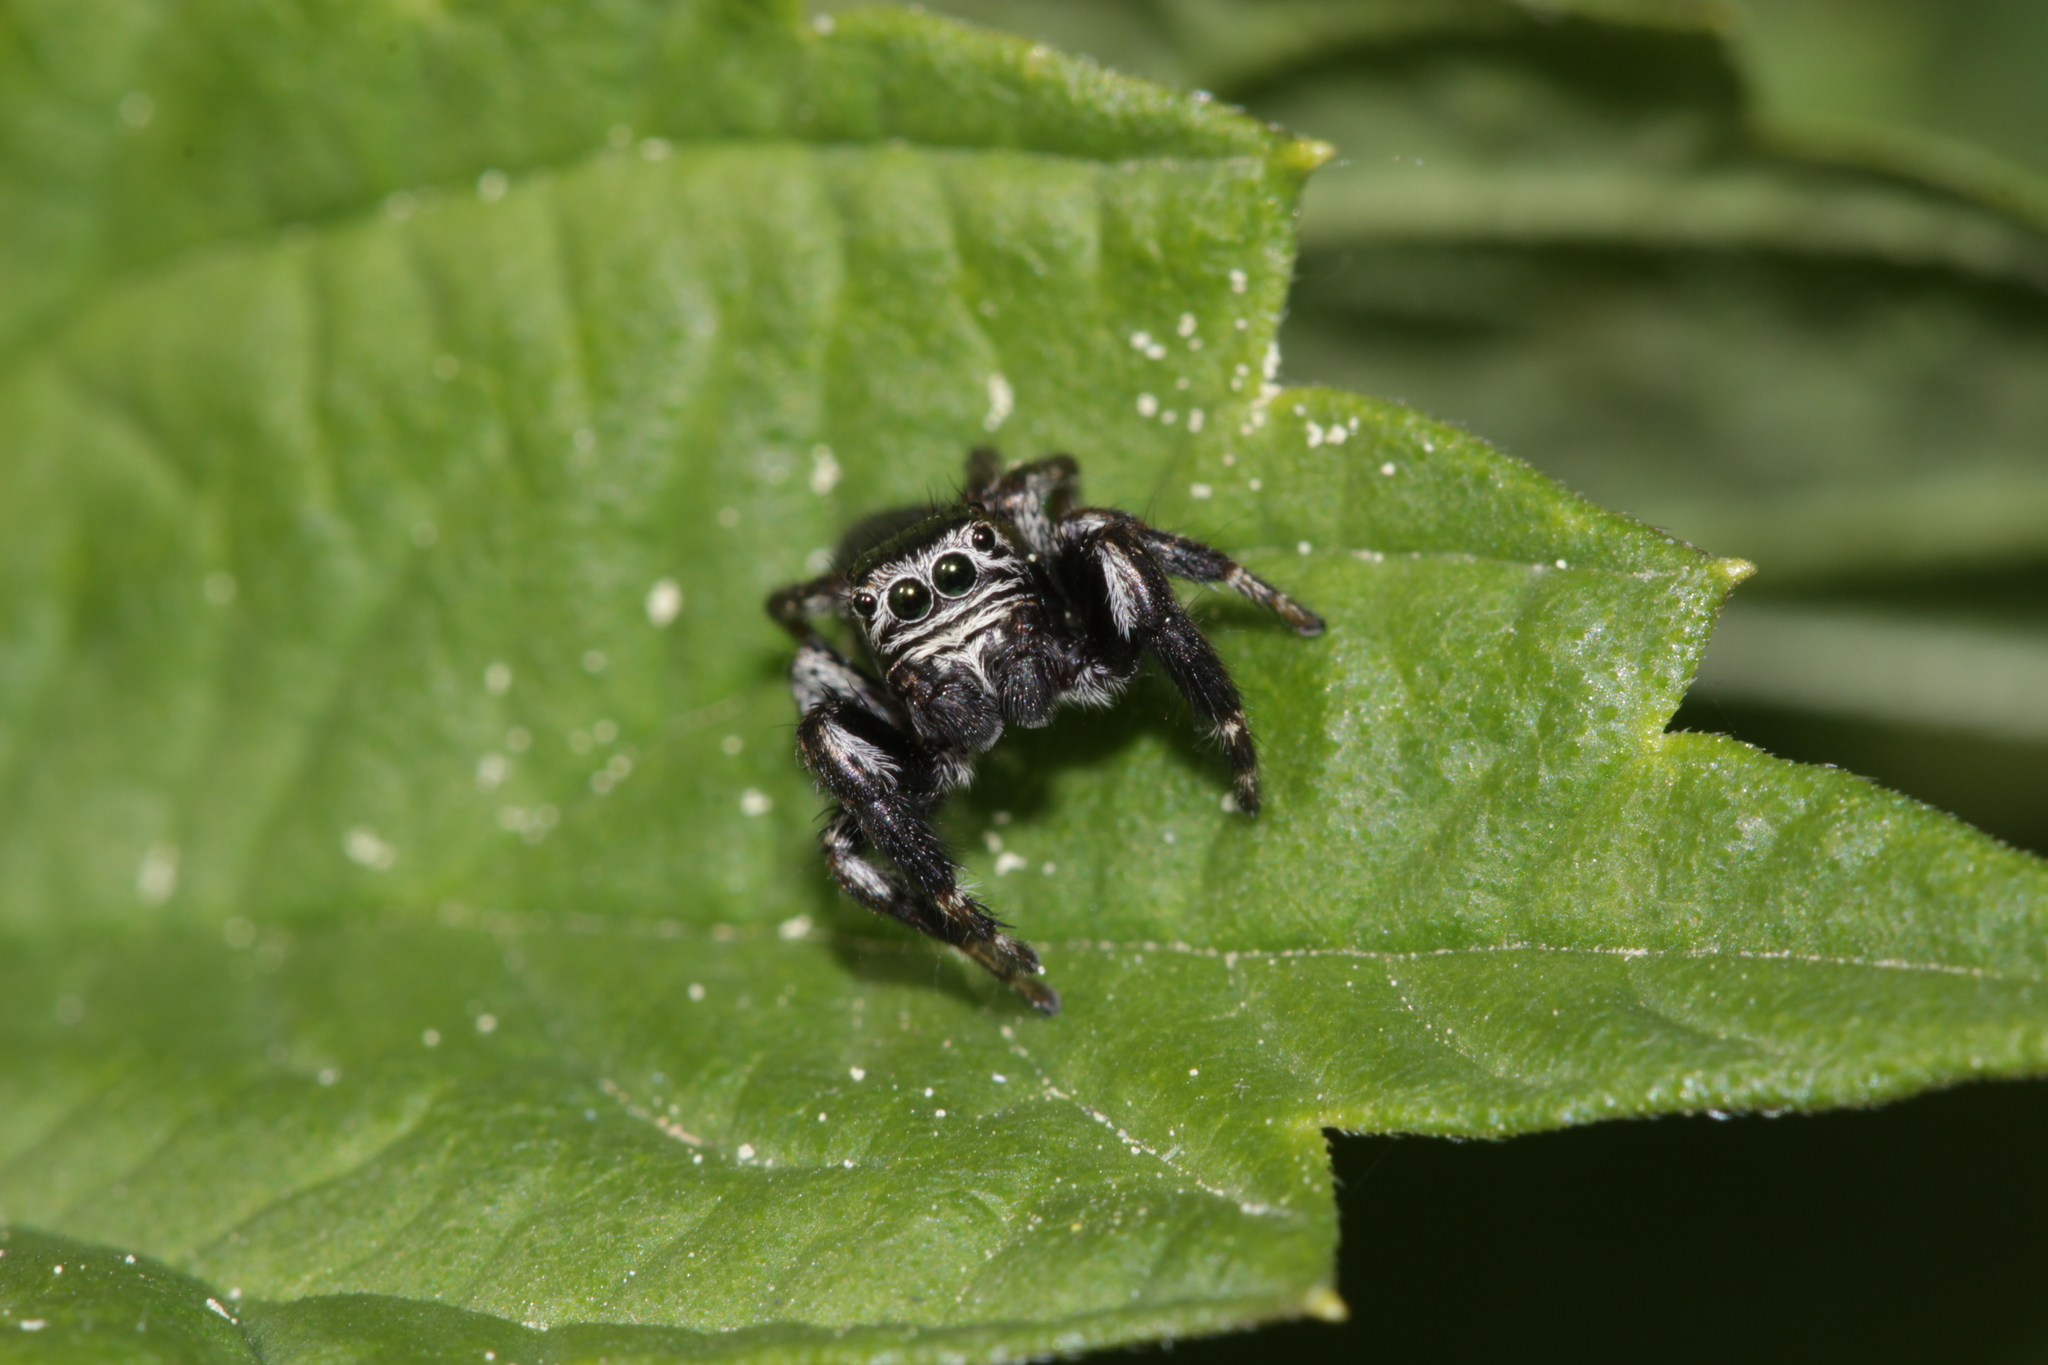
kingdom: Animalia
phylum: Arthropoda
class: Arachnida
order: Araneae
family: Salticidae
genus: Evarcha
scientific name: Evarcha arcuata
